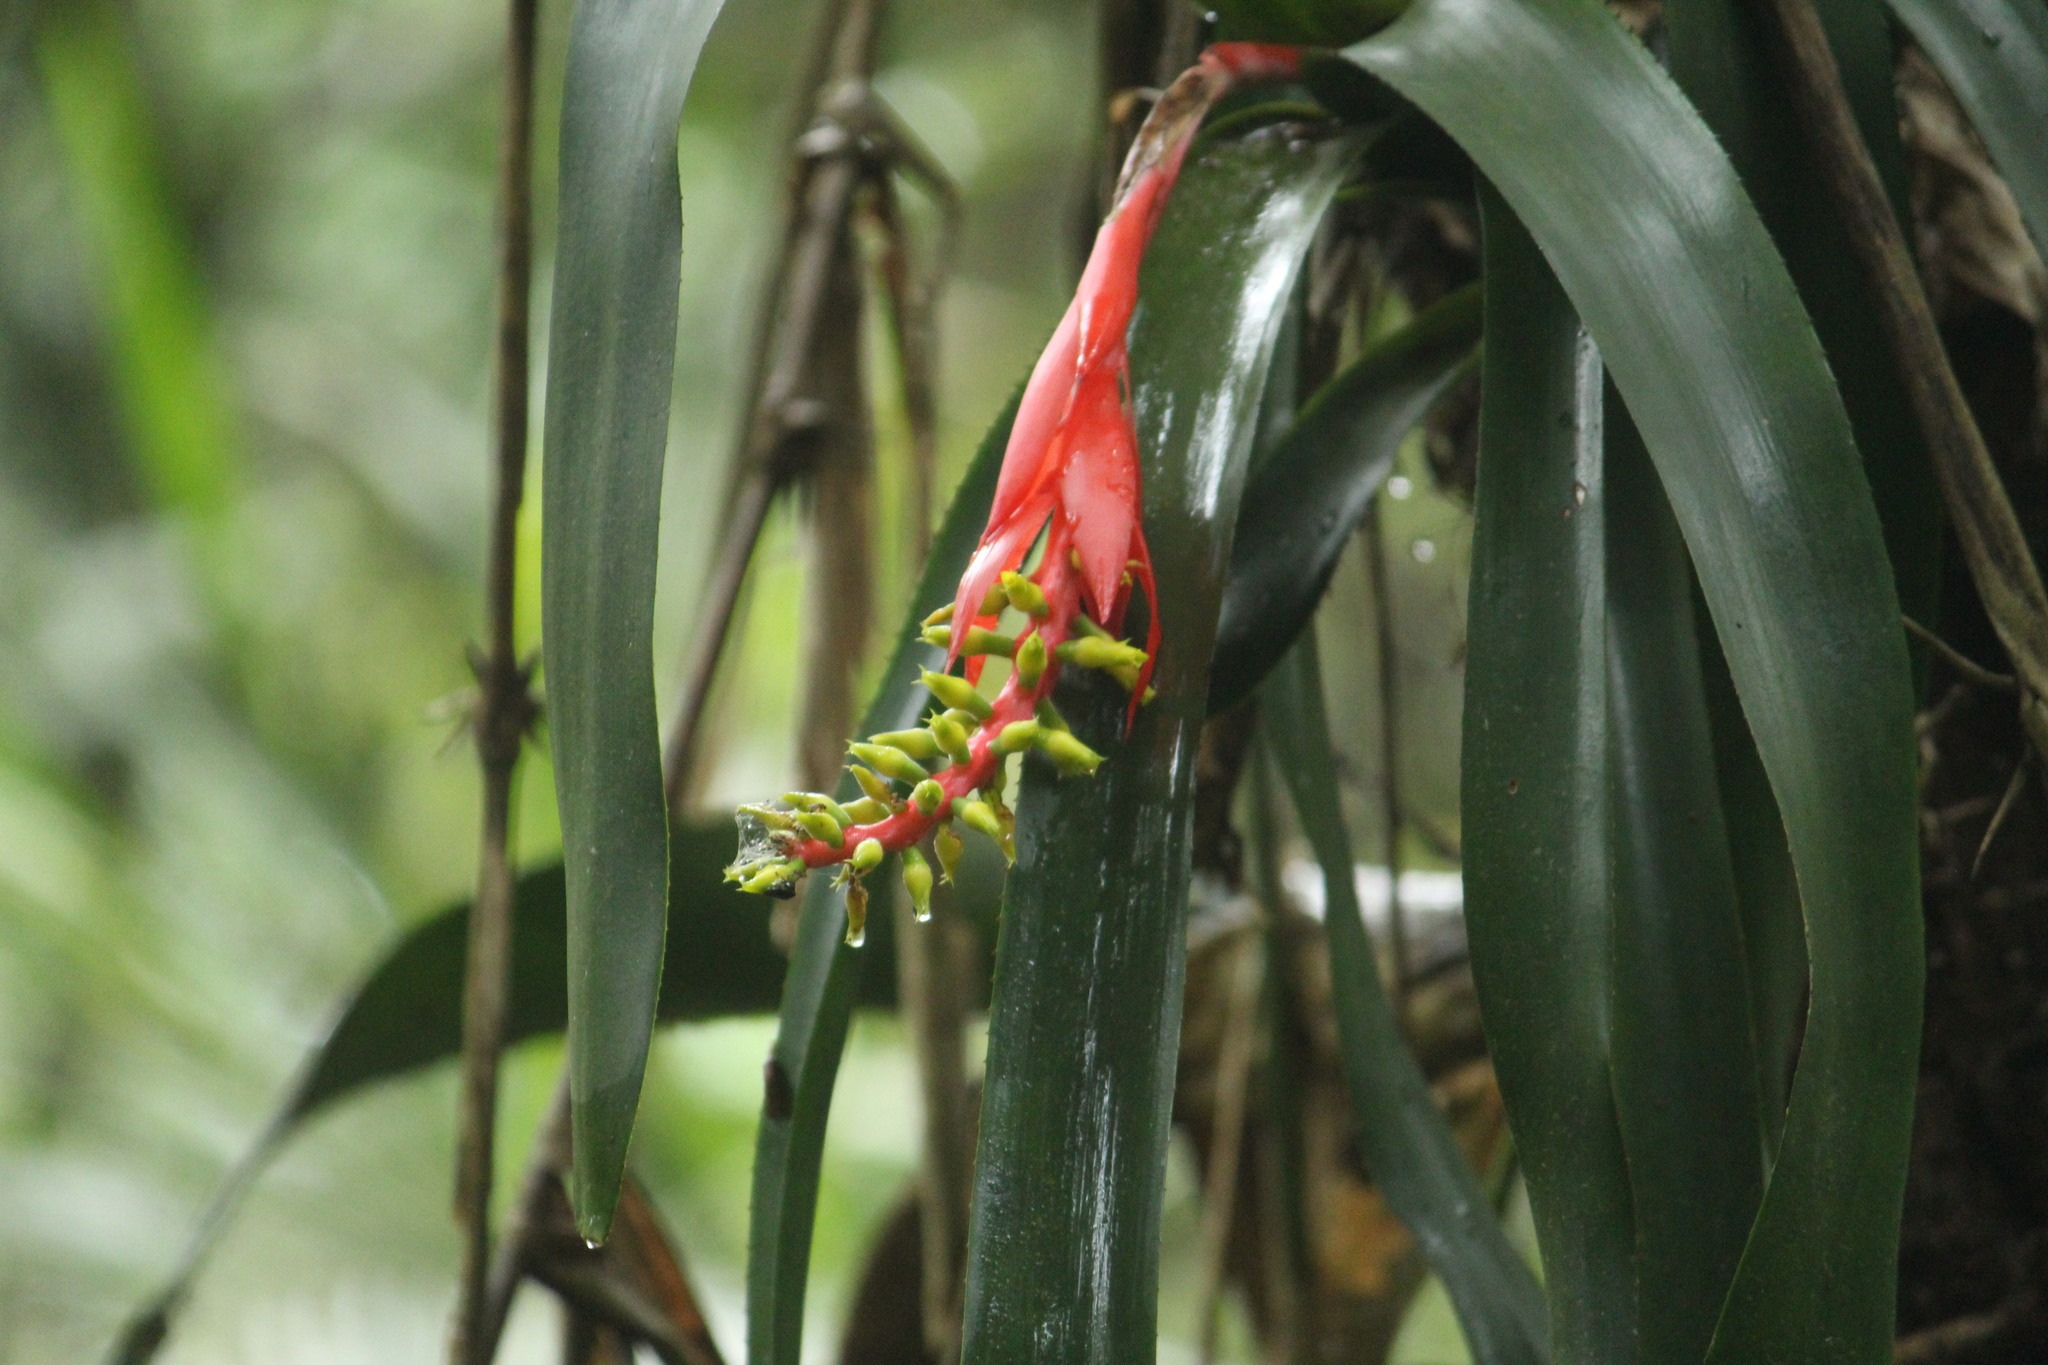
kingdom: Plantae
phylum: Tracheophyta
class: Liliopsida
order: Poales
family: Bromeliaceae
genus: Aechmea
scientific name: Aechmea nudicaulis
